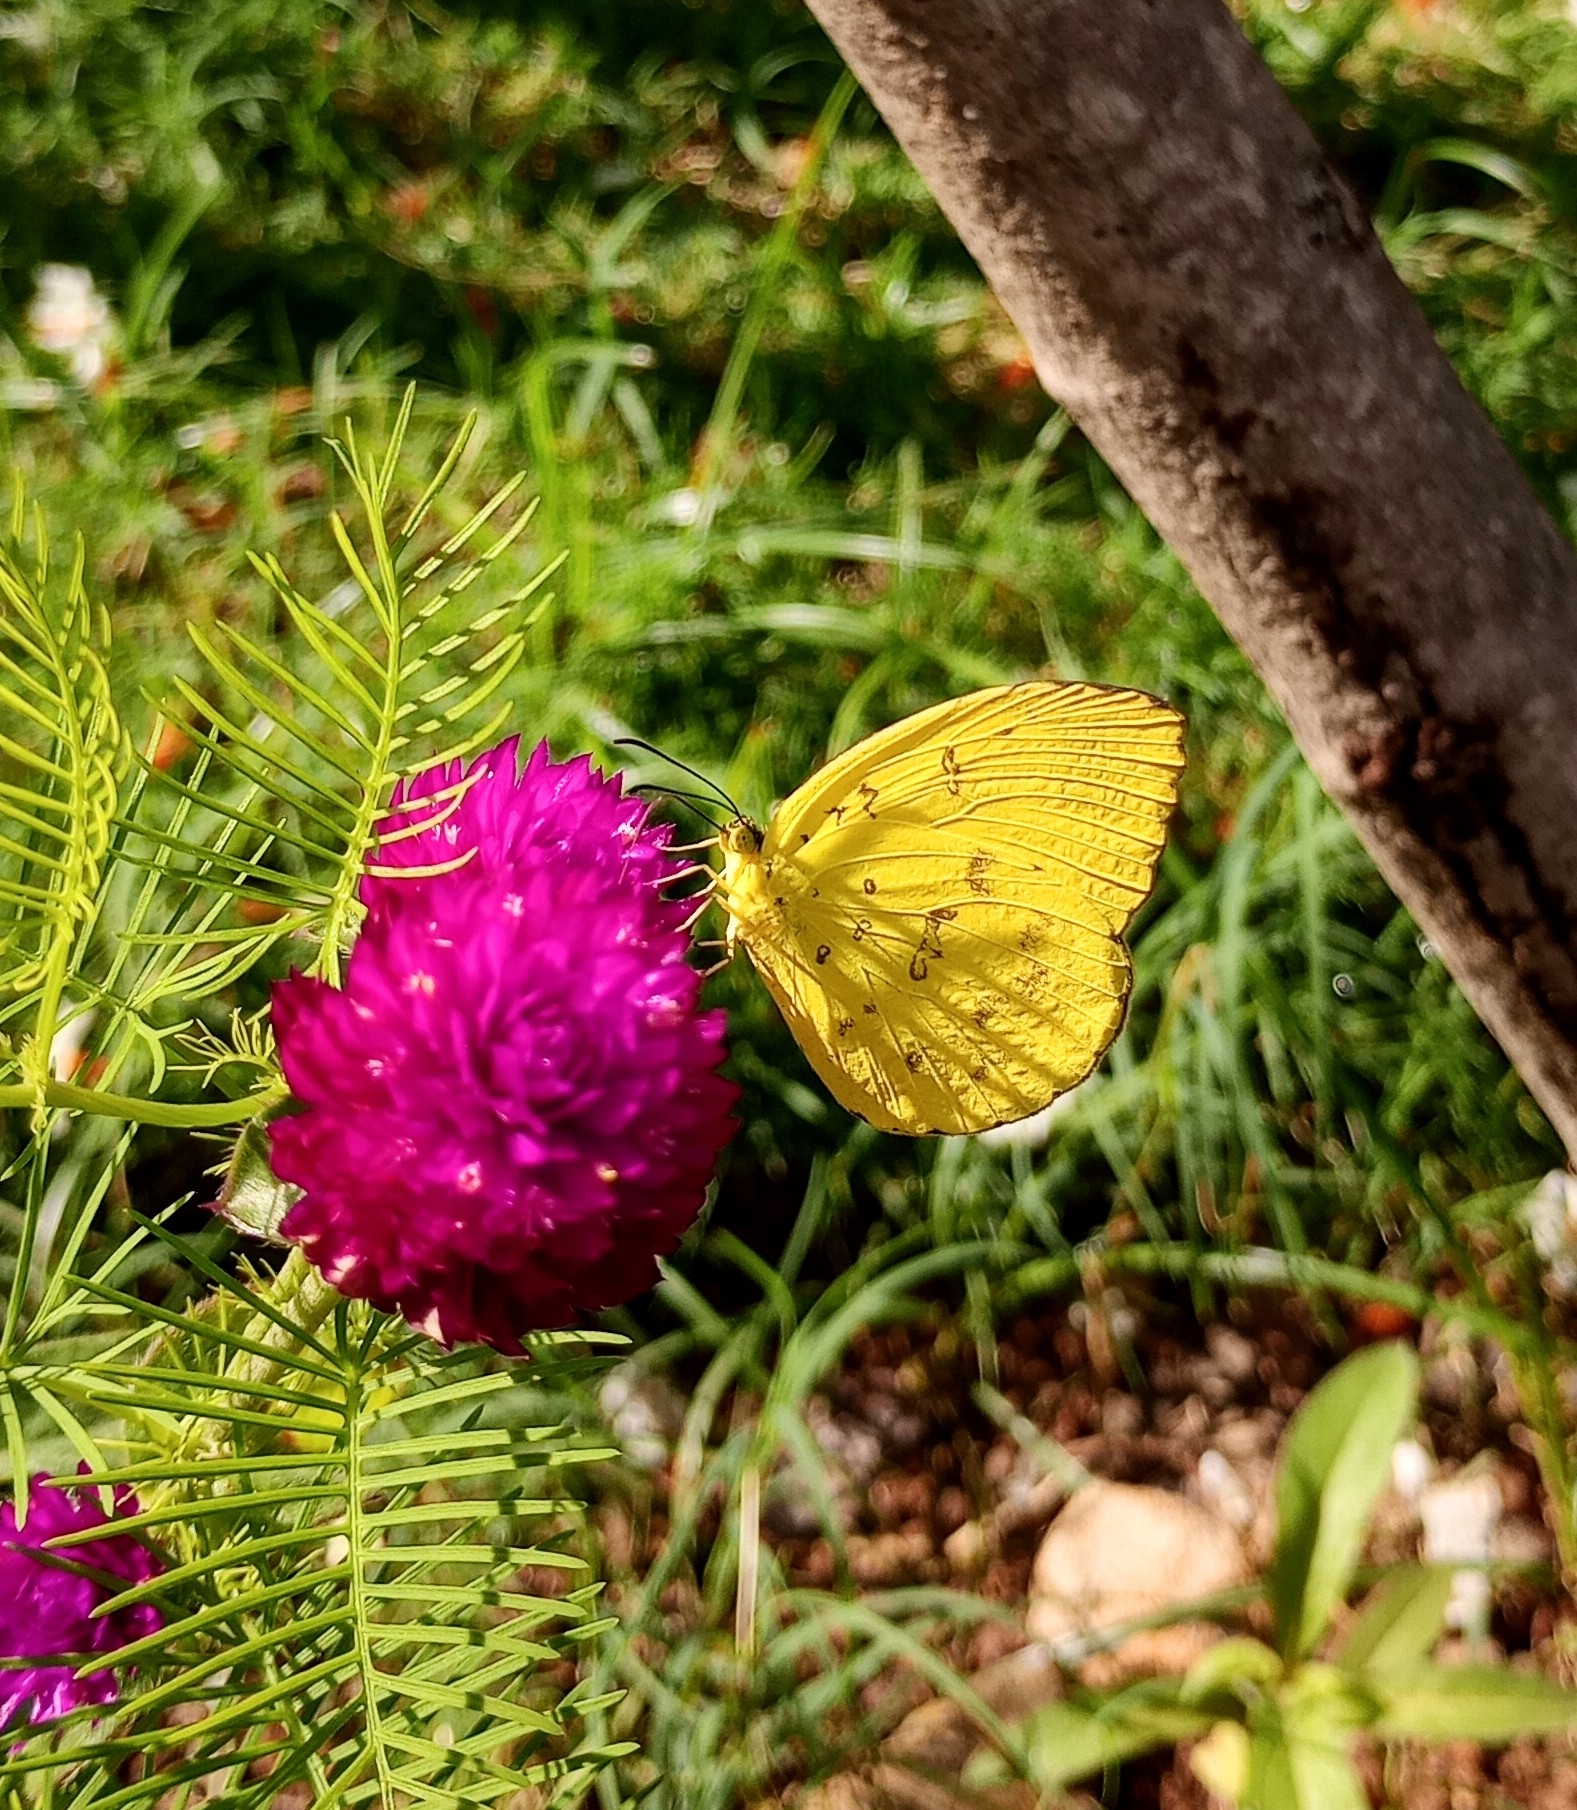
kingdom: Animalia
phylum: Arthropoda
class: Insecta
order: Lepidoptera
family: Pieridae
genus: Eurema
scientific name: Eurema blanda
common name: Three-spot grass yellow
